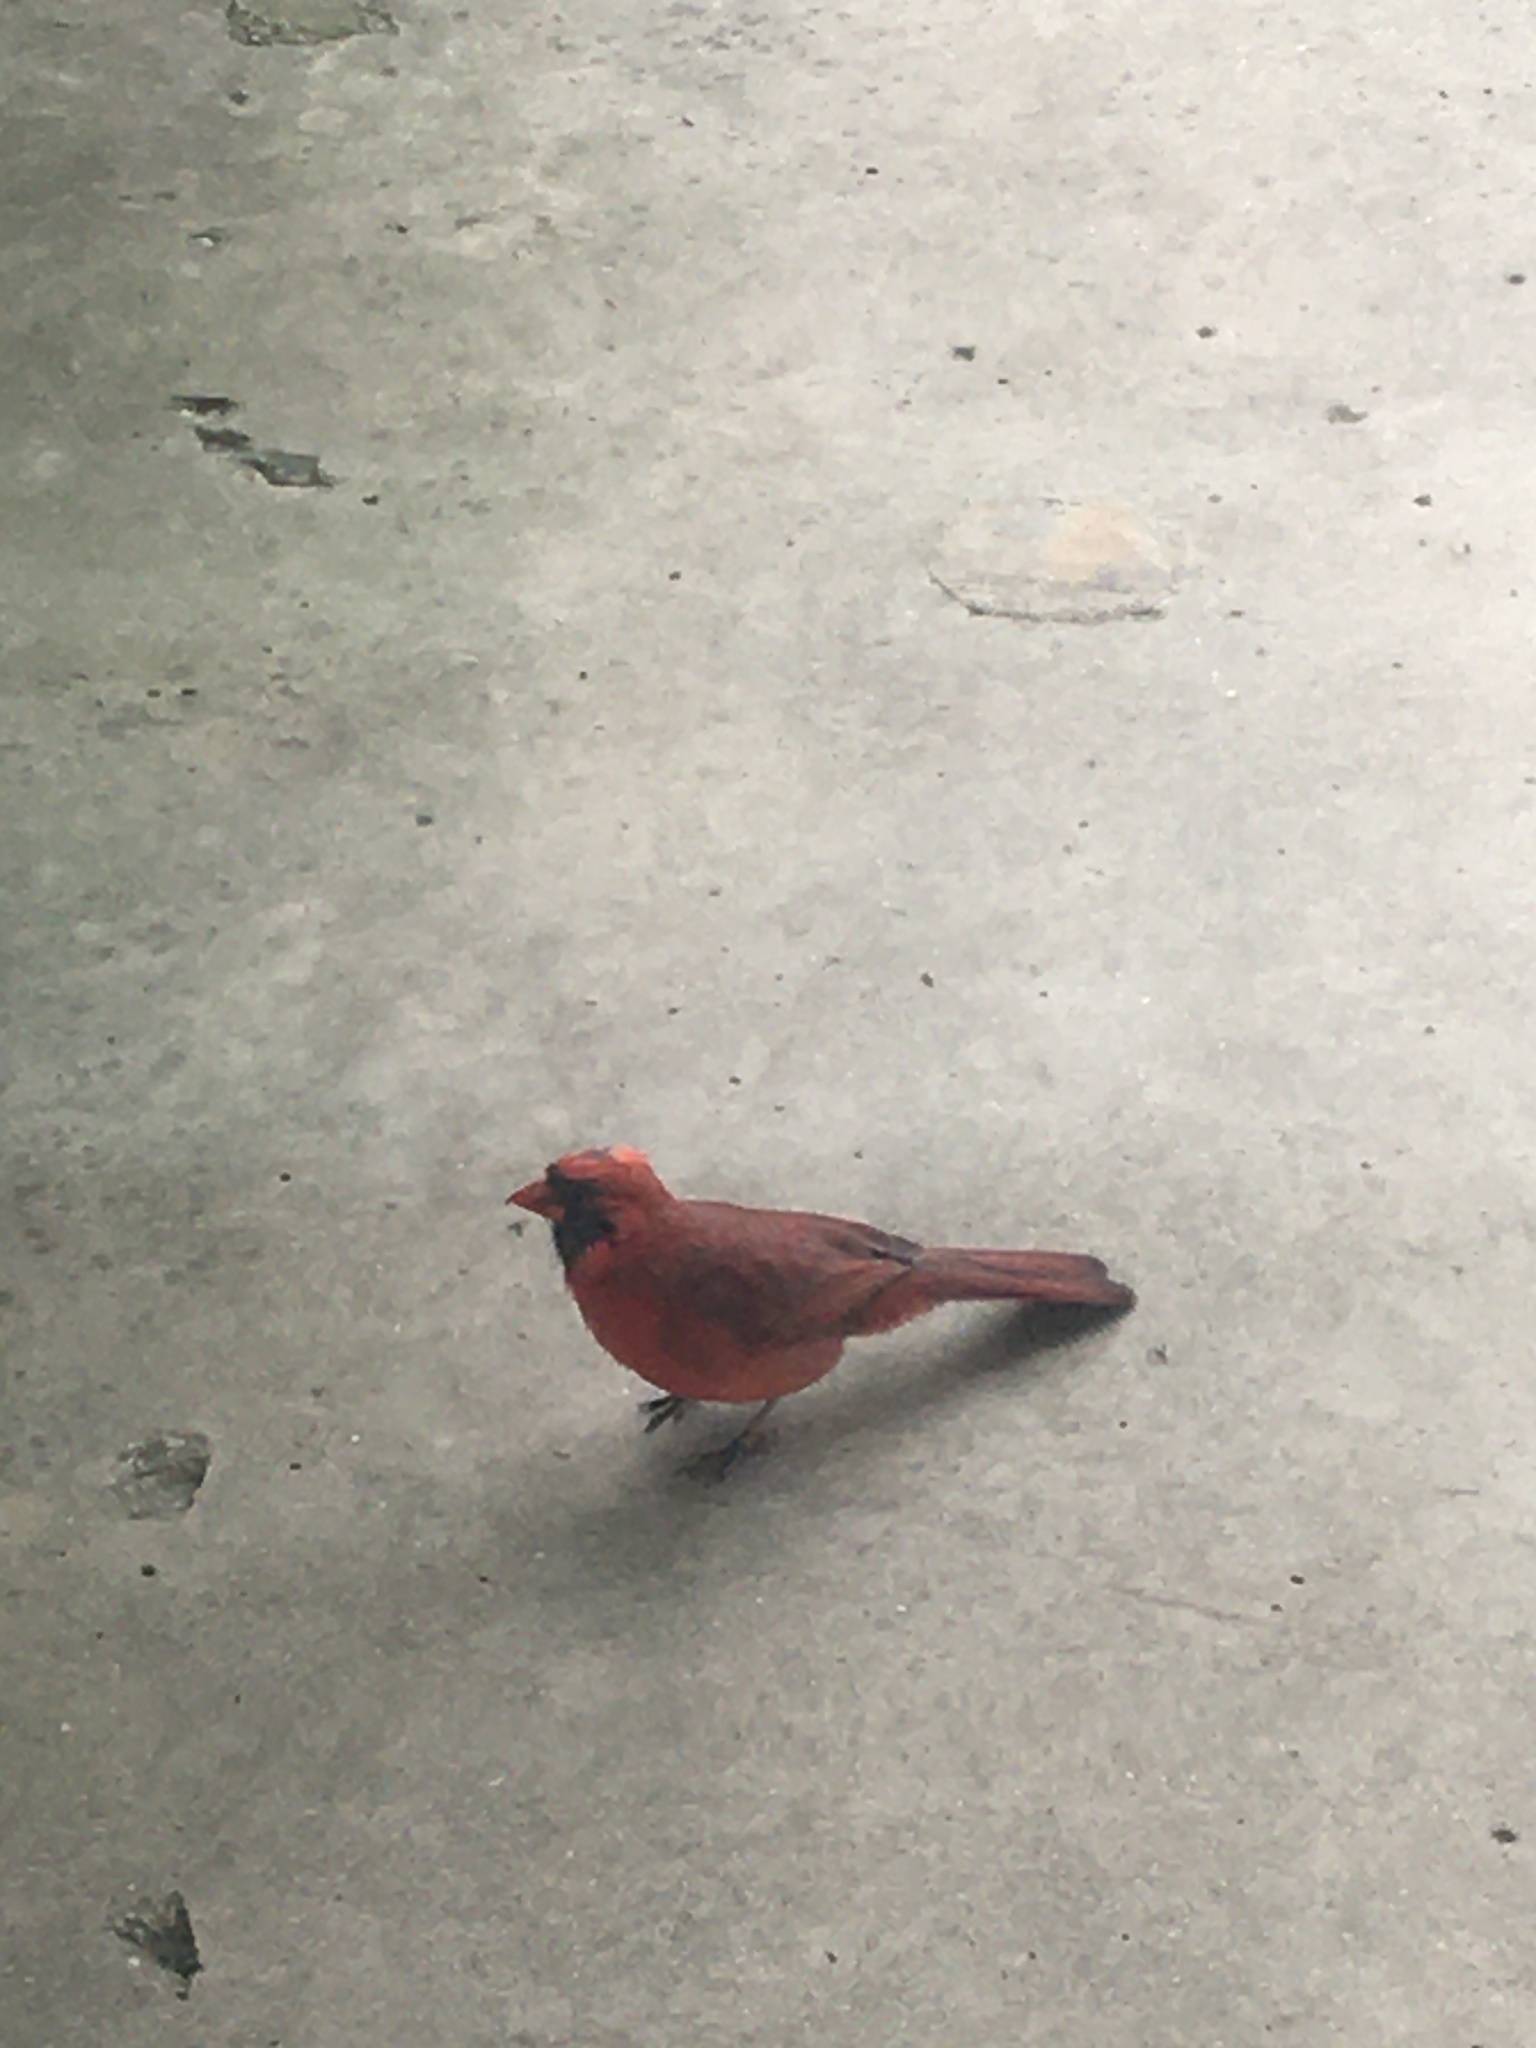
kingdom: Animalia
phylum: Chordata
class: Aves
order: Passeriformes
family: Cardinalidae
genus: Cardinalis
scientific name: Cardinalis cardinalis
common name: Northern cardinal
